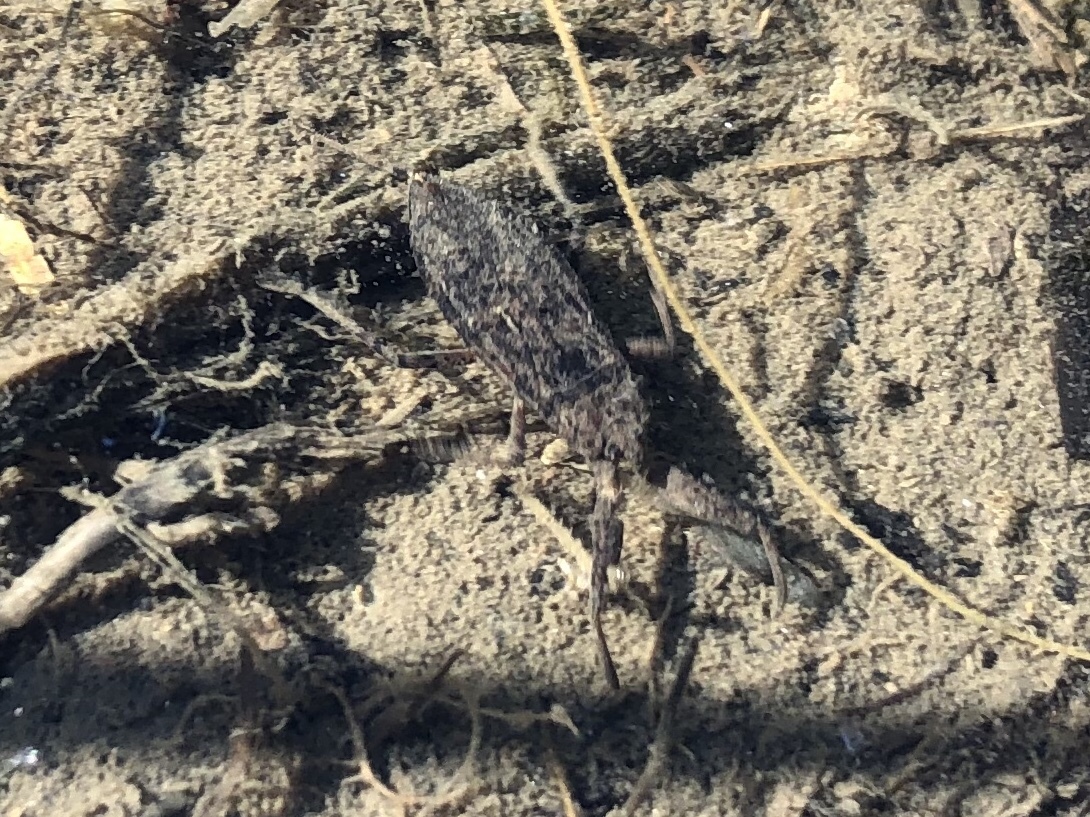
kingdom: Animalia
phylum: Arthropoda
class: Insecta
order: Hemiptera
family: Nepidae
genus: Nepa
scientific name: Nepa cinerea
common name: Water scorpion
